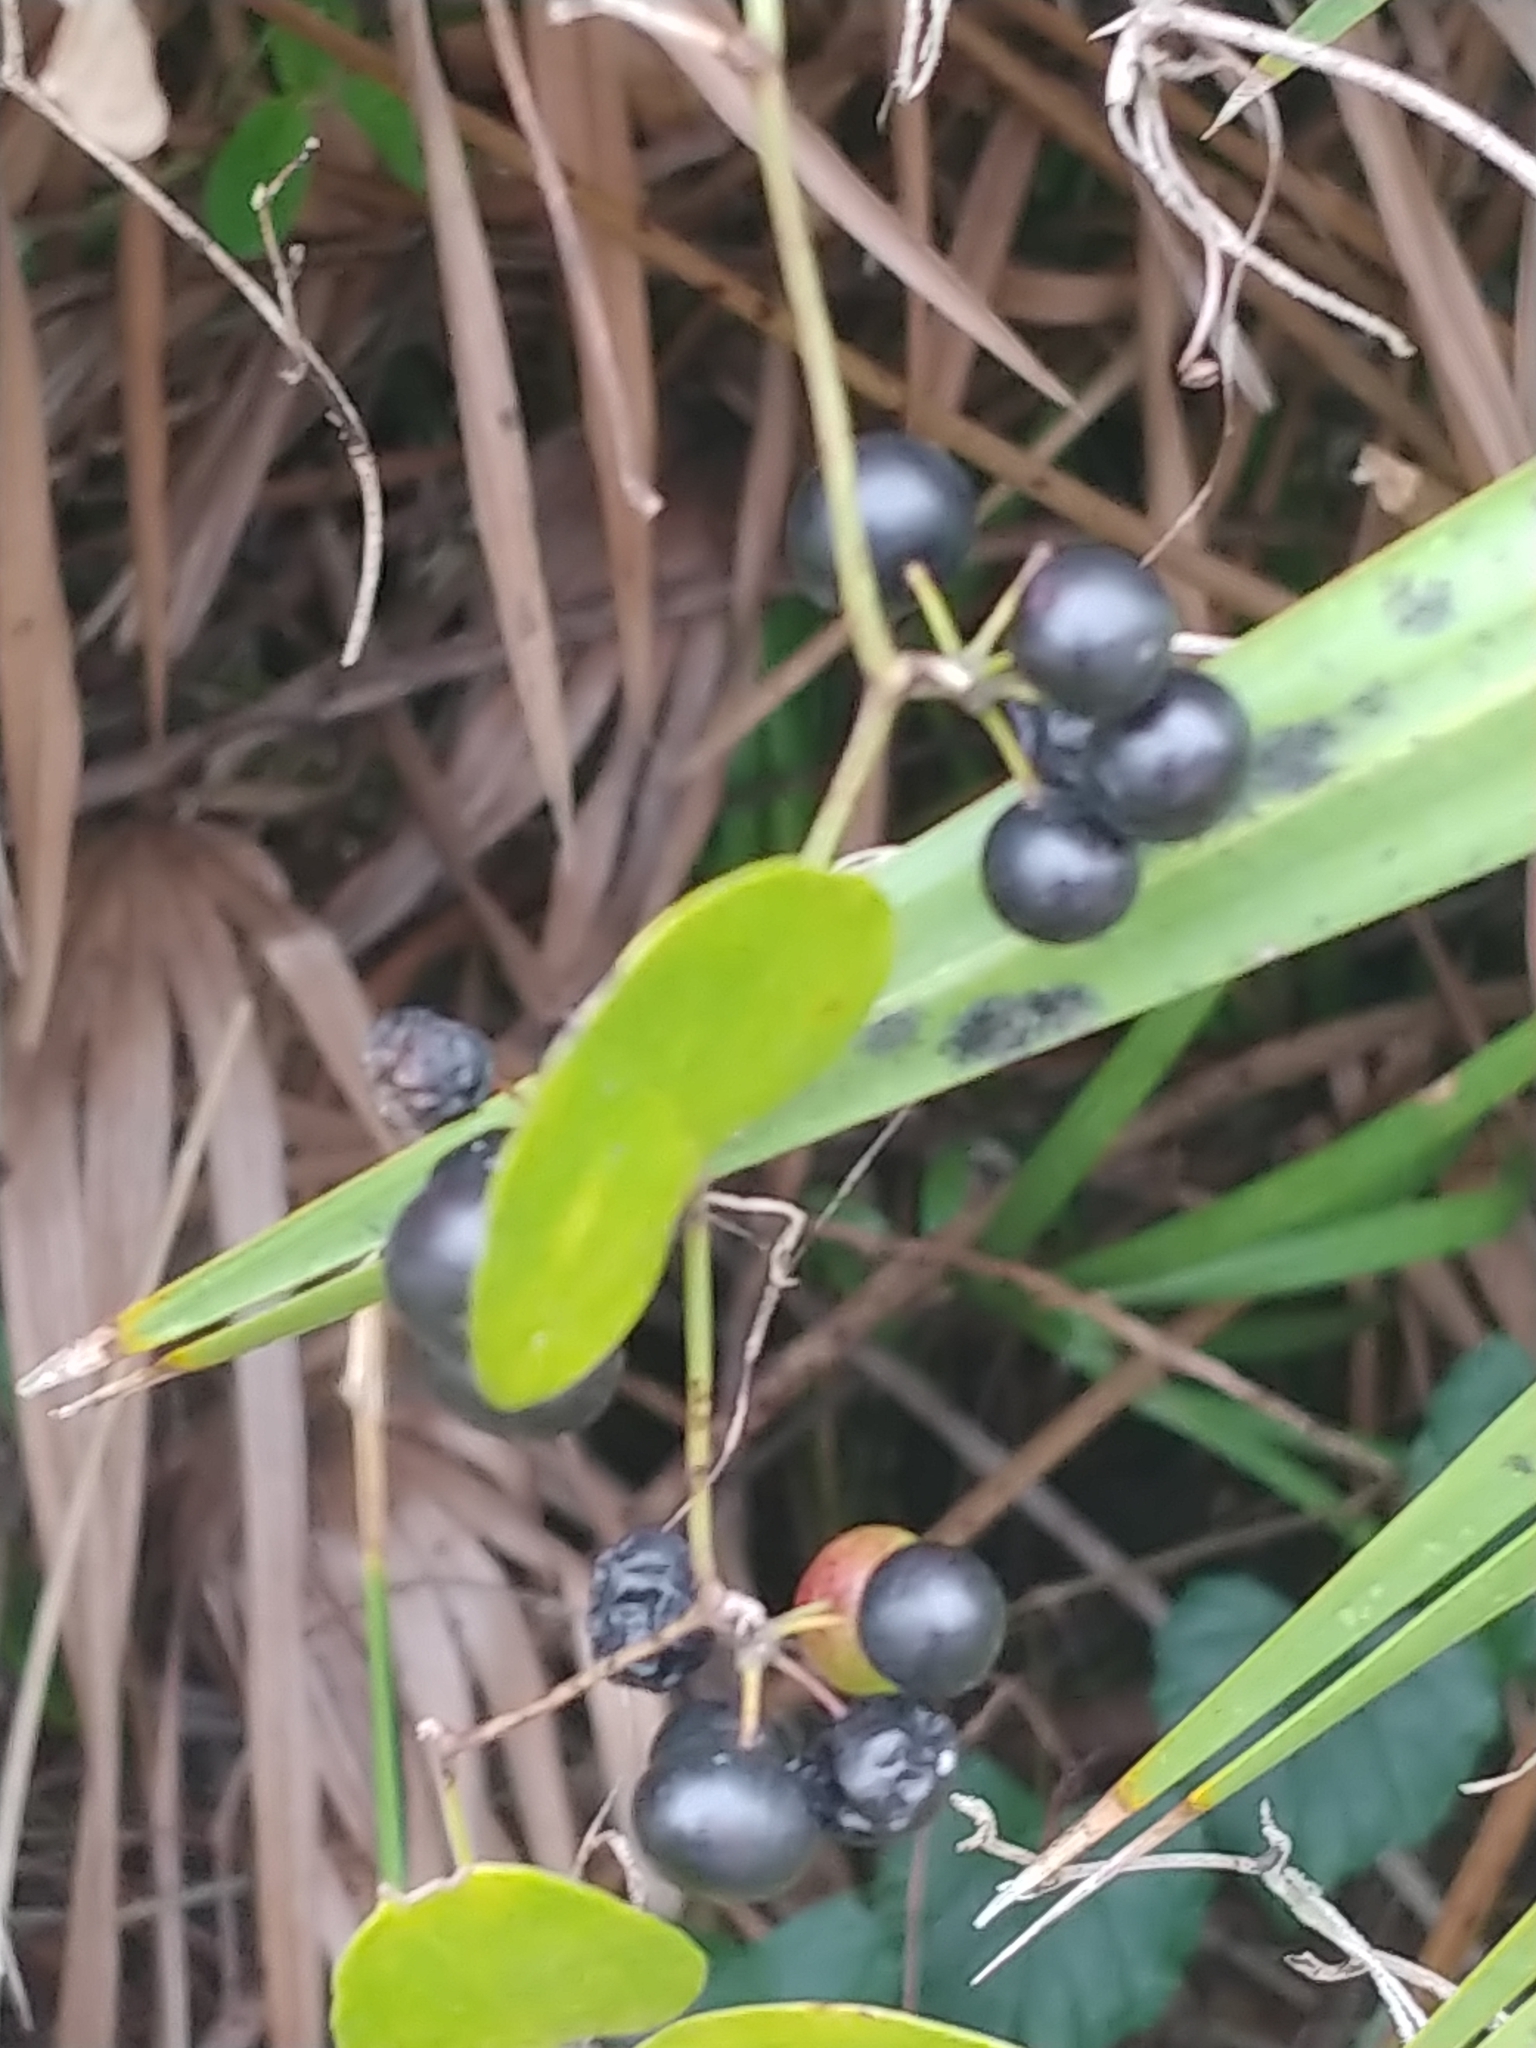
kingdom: Plantae
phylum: Tracheophyta
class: Liliopsida
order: Liliales
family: Smilacaceae
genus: Smilax
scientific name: Smilax auriculata
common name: Wild bamboo
